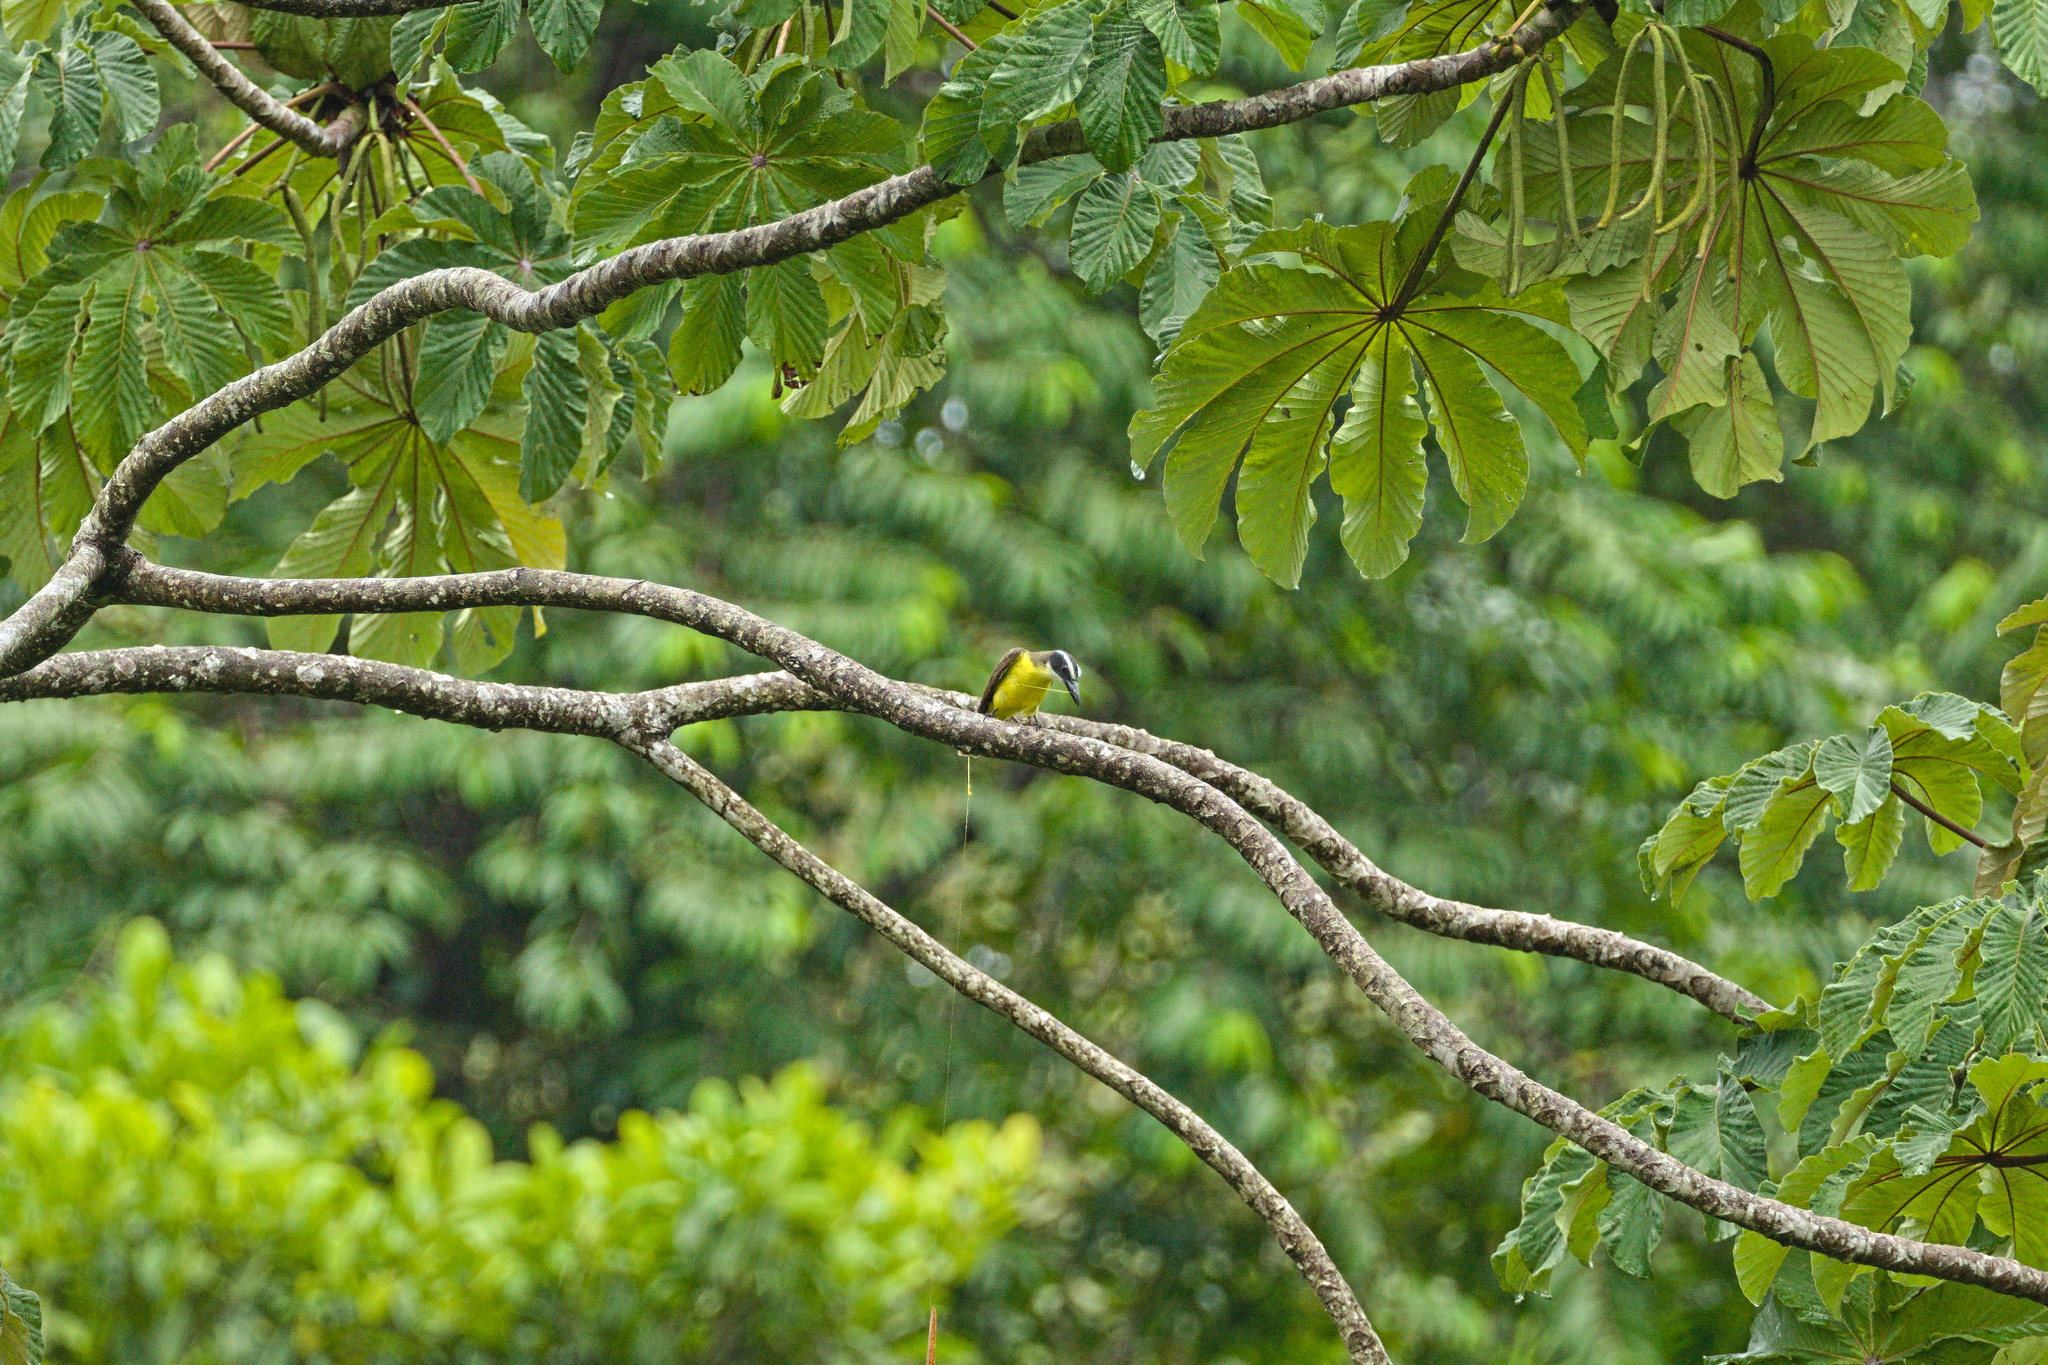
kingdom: Animalia
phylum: Chordata
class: Aves
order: Passeriformes
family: Tyrannidae
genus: Megarynchus
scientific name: Megarynchus pitangua
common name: Boat-billed flycatcher
